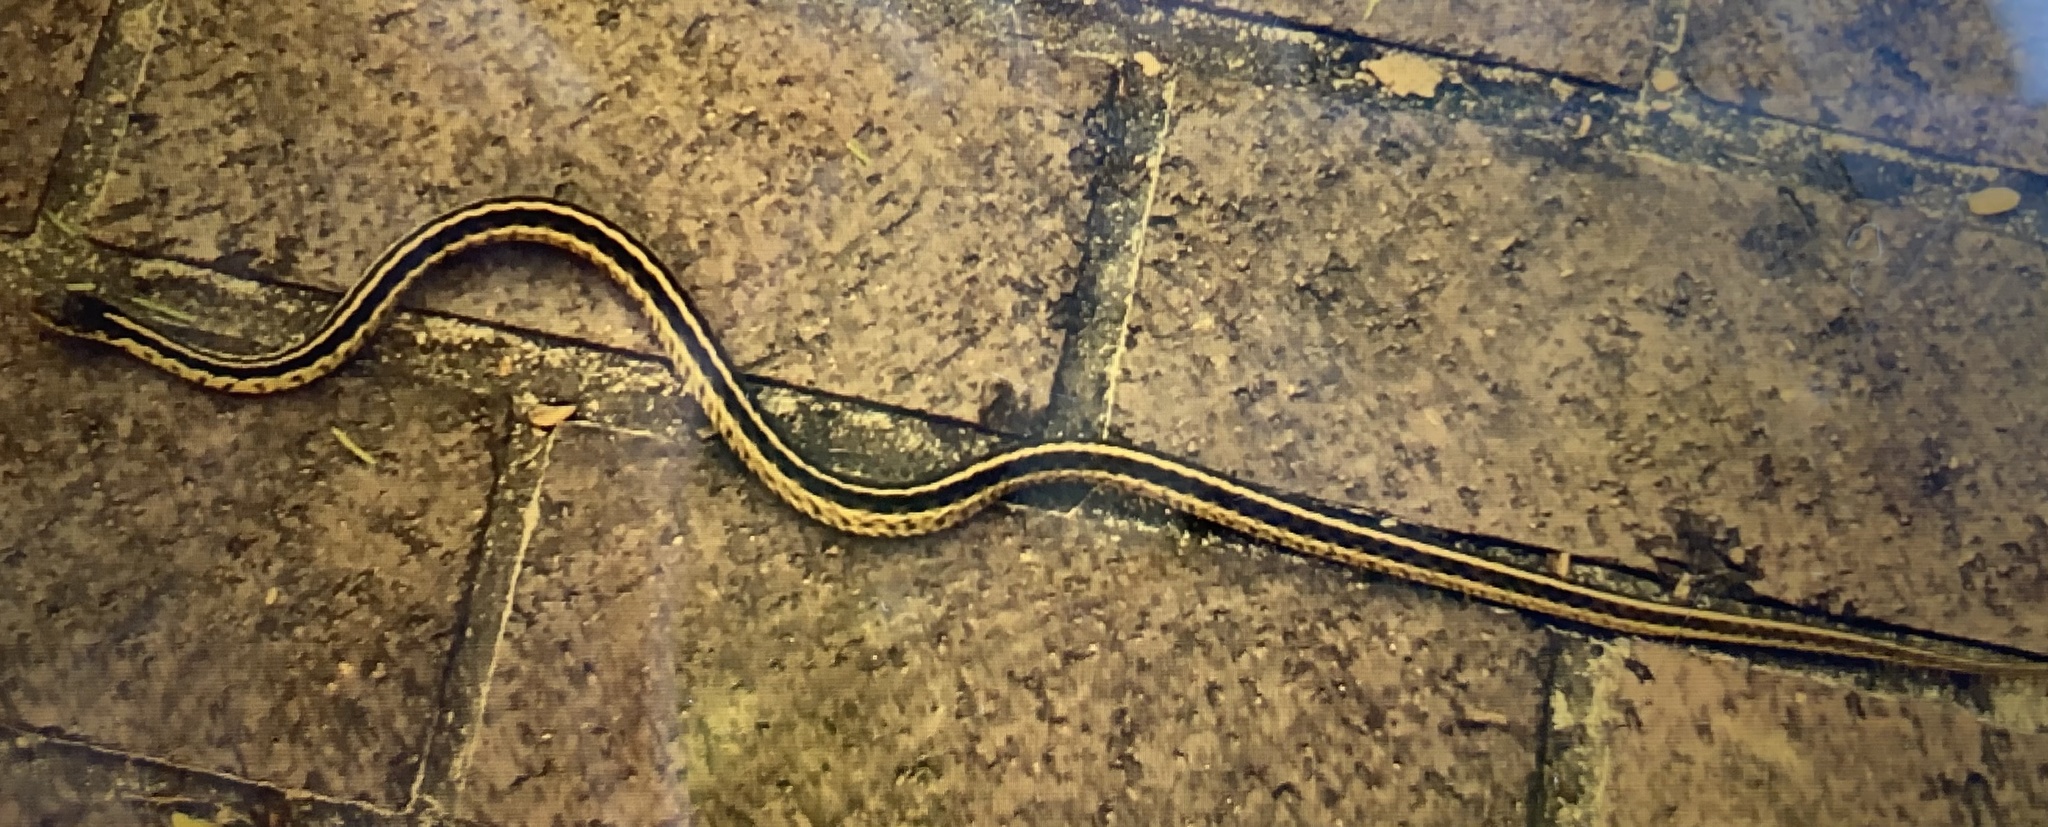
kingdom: Animalia
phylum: Chordata
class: Squamata
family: Colubridae
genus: Thamnophis
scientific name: Thamnophis sirtalis
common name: Common garter snake
